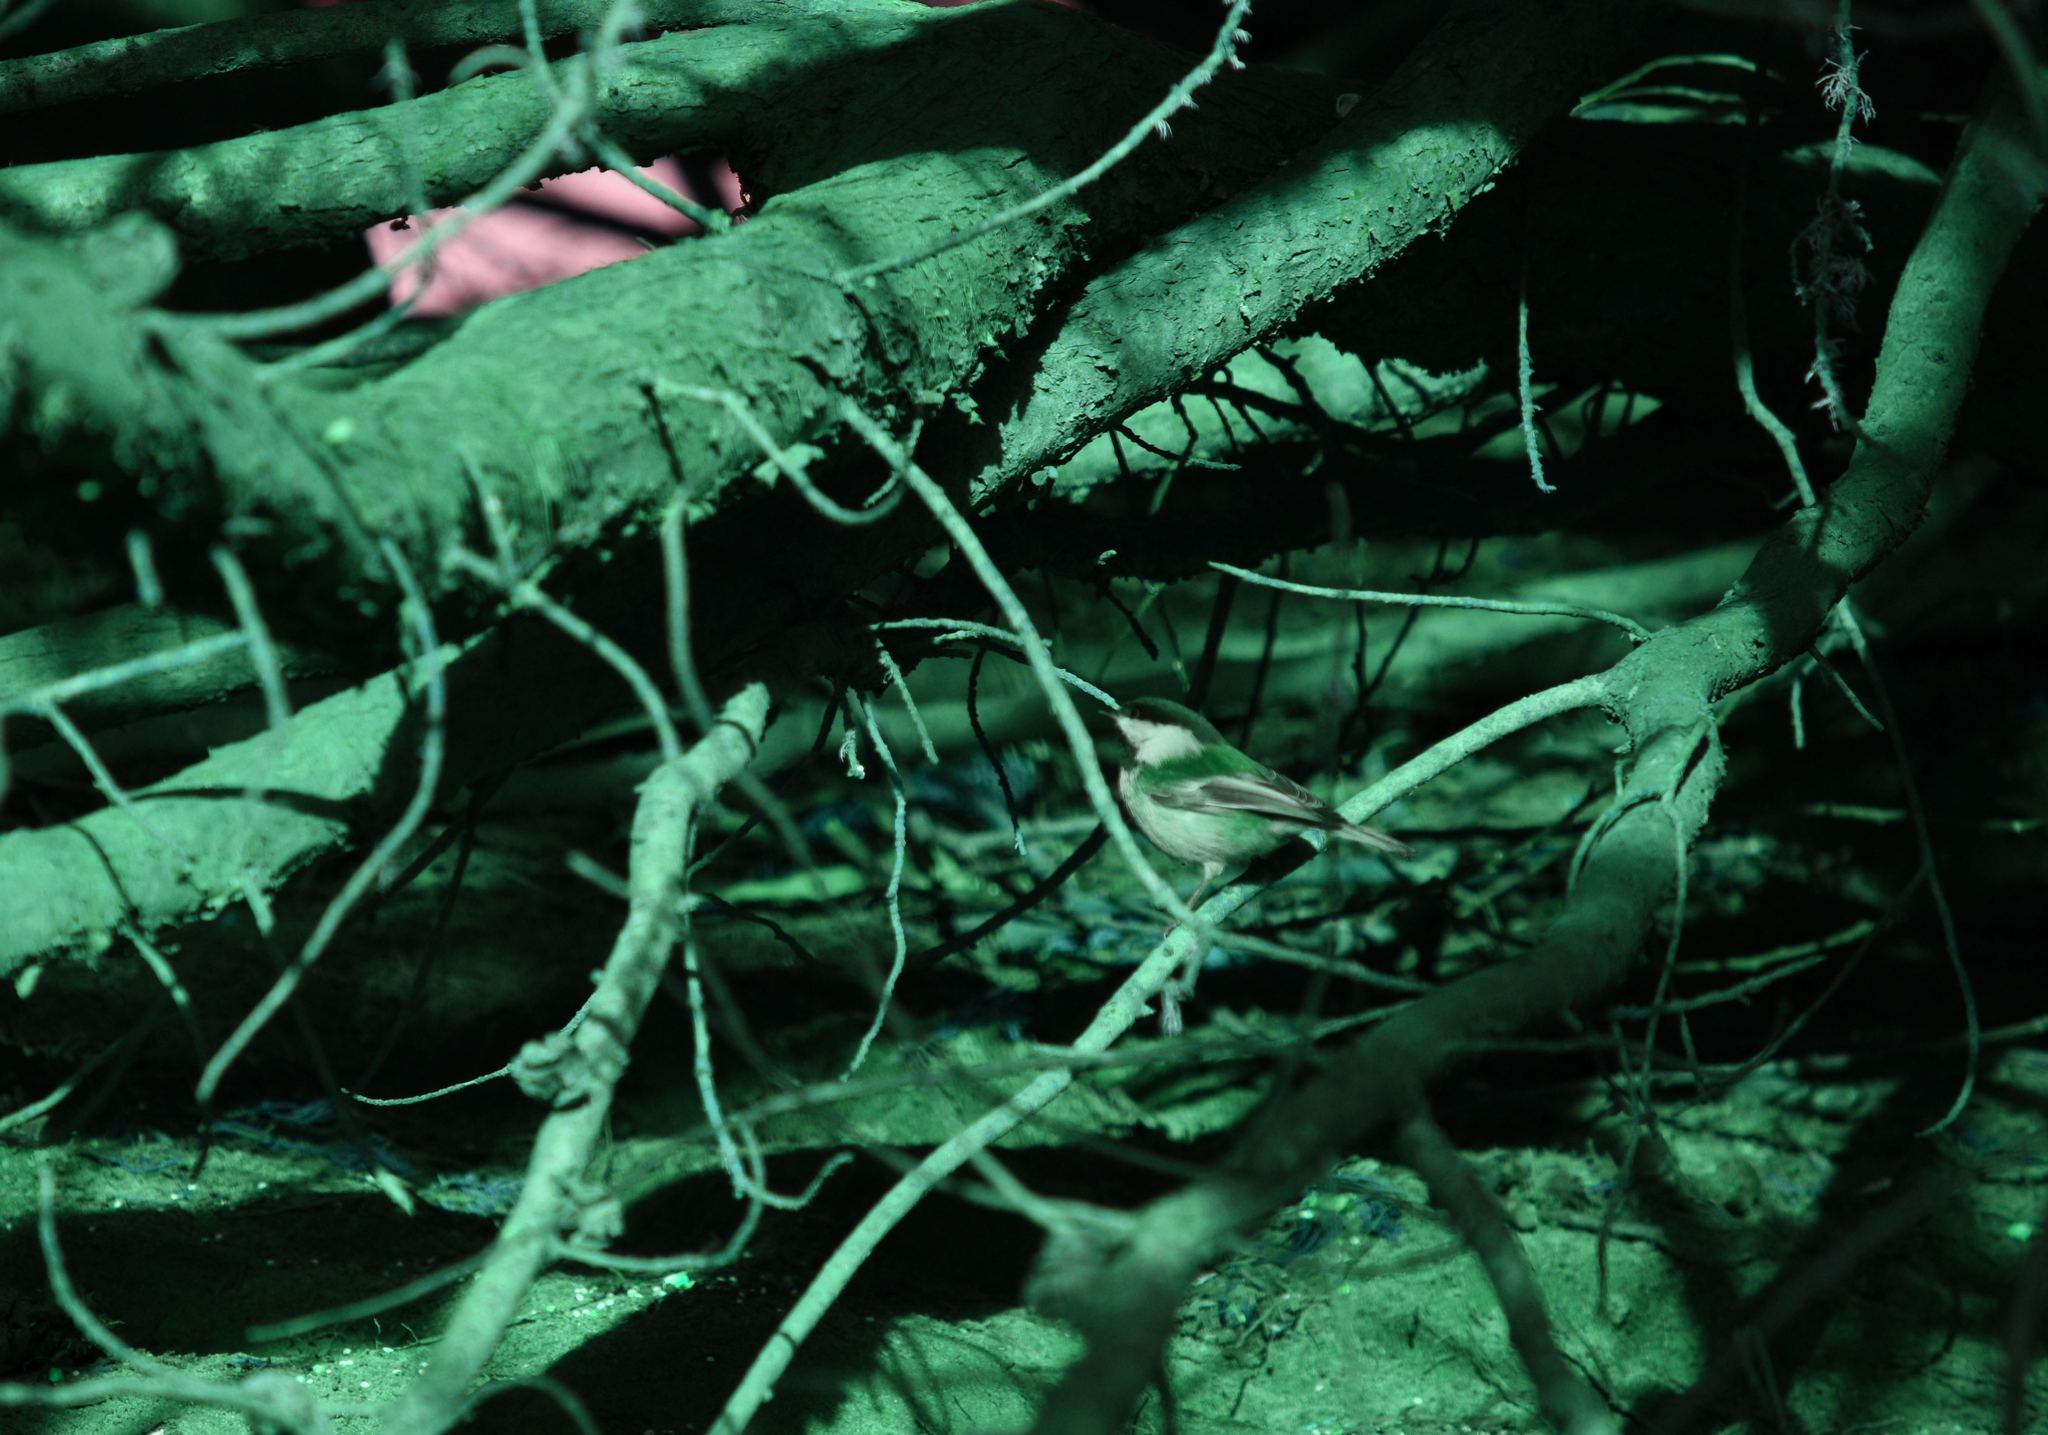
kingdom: Animalia
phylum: Chordata
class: Aves
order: Passeriformes
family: Paridae
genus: Poecile
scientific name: Poecile rufescens
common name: Chestnut-backed chickadee
